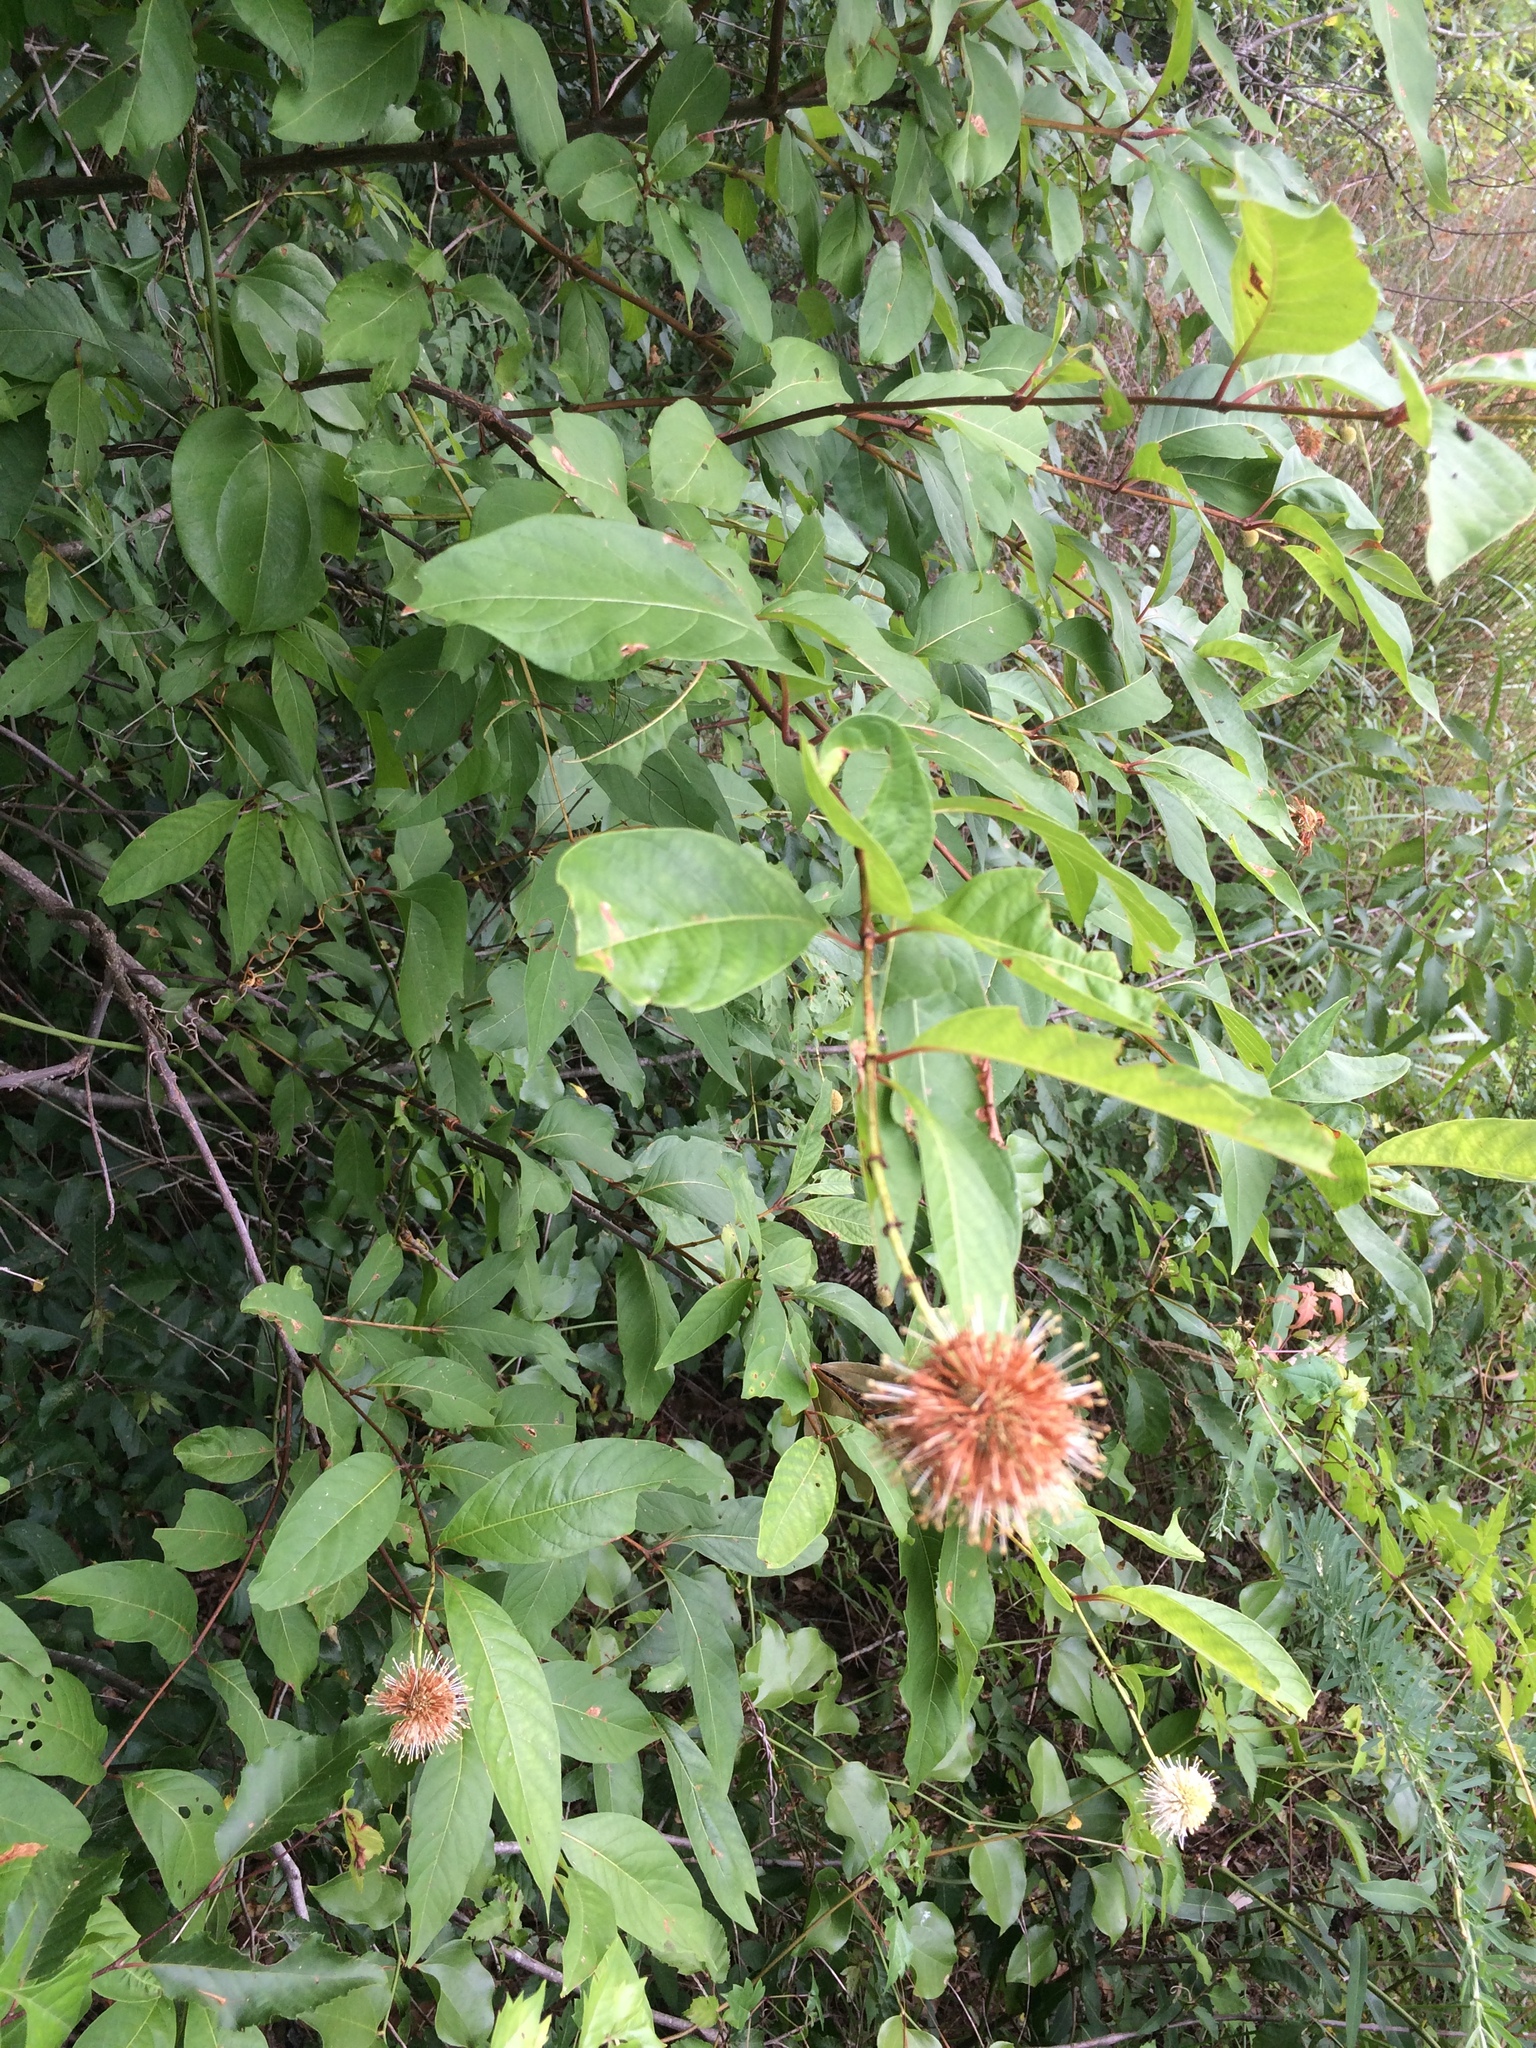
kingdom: Plantae
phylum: Tracheophyta
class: Magnoliopsida
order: Gentianales
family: Rubiaceae
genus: Cephalanthus
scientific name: Cephalanthus occidentalis
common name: Button-willow
